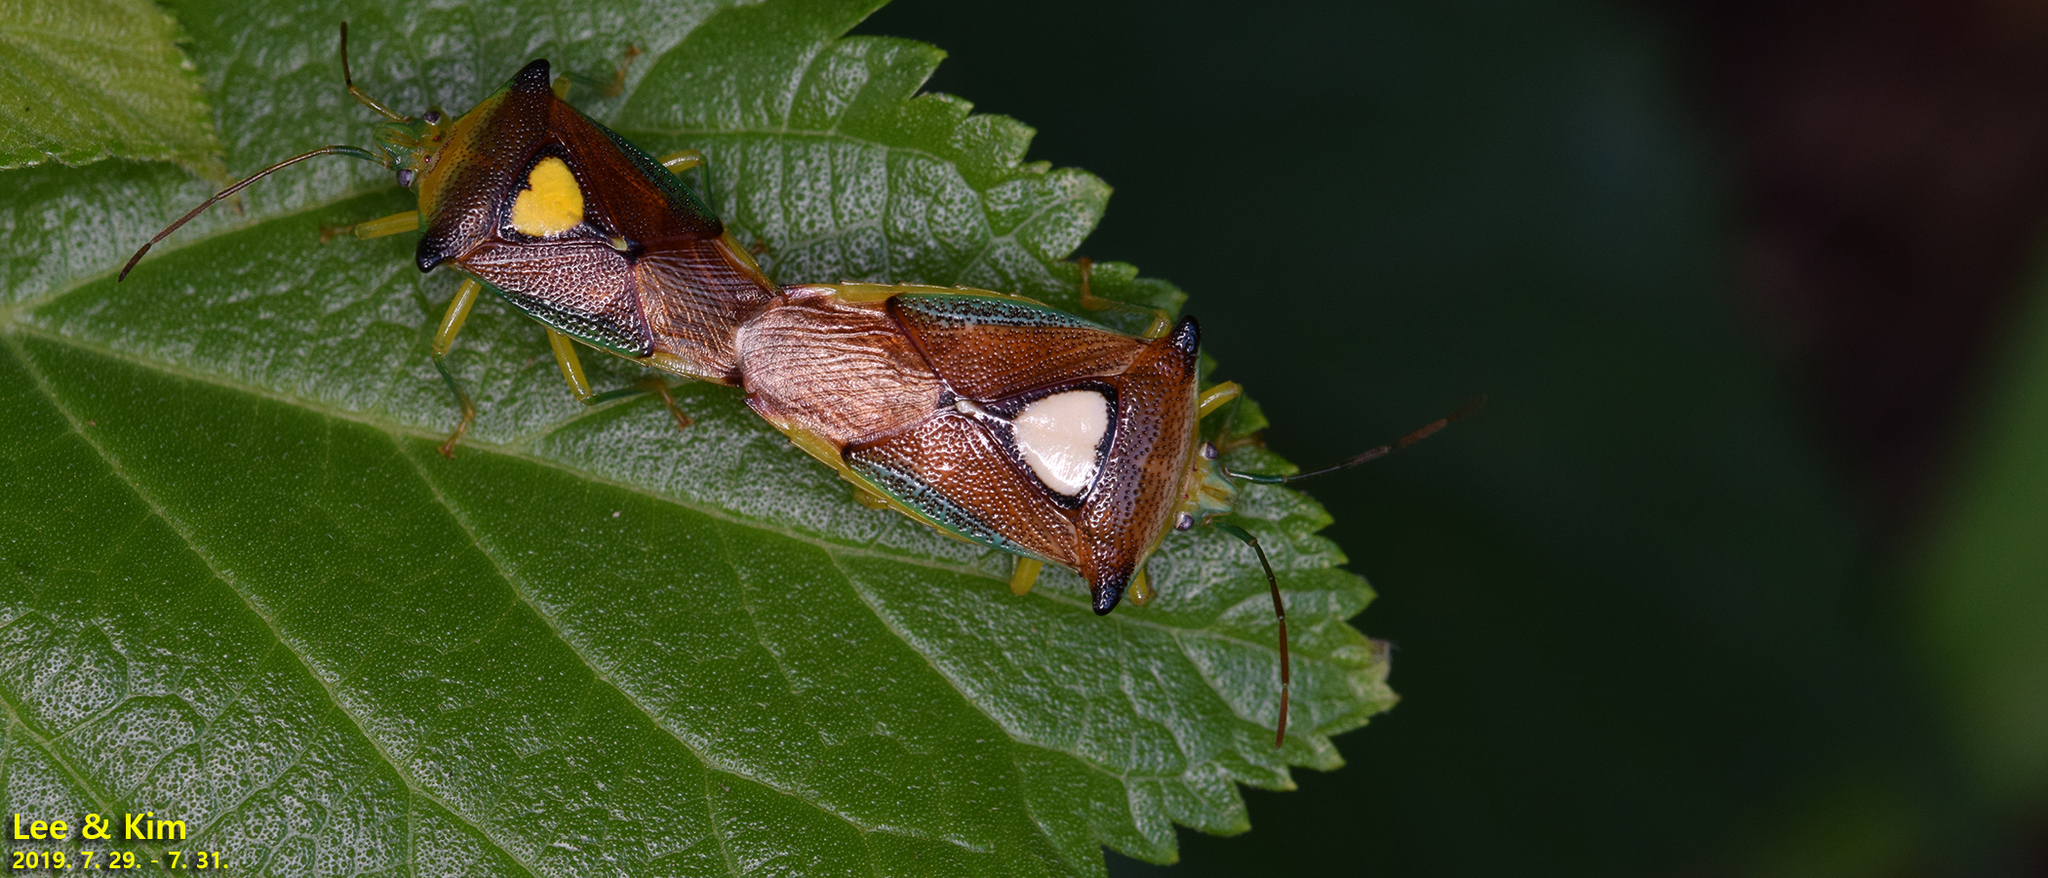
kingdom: Animalia
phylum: Arthropoda
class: Insecta
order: Hemiptera
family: Acanthosomatidae
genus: Sastragala
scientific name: Sastragala esakii
